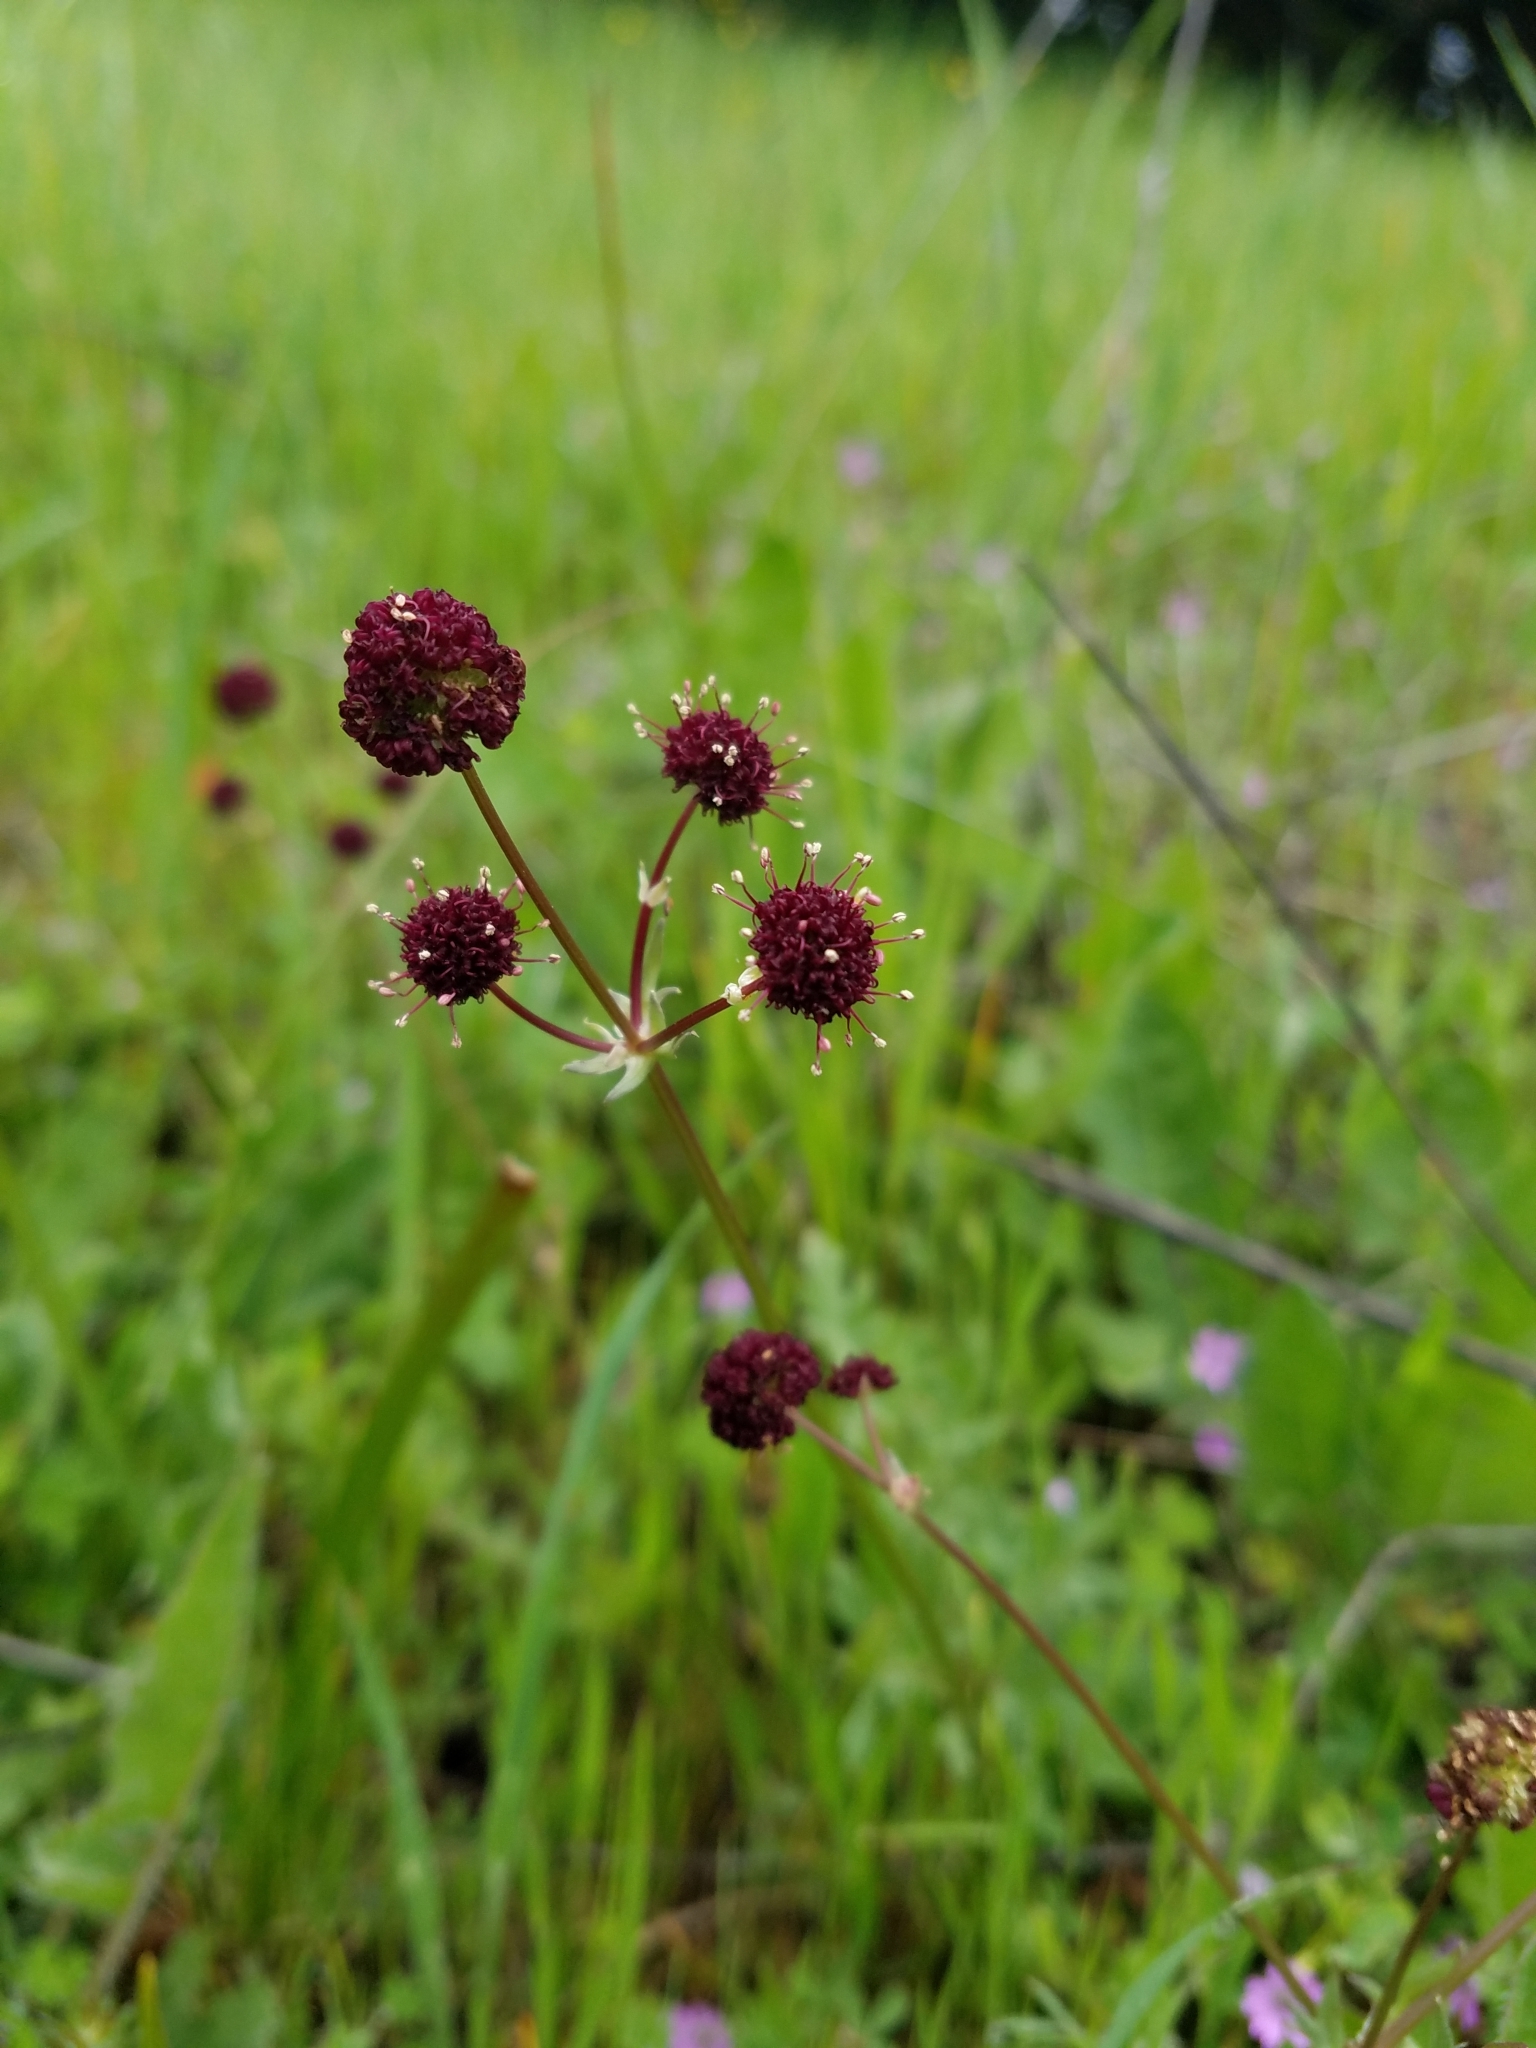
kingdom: Plantae
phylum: Tracheophyta
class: Magnoliopsida
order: Apiales
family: Apiaceae
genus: Sanicula
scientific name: Sanicula bipinnatifida
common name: Shoe-buttons
